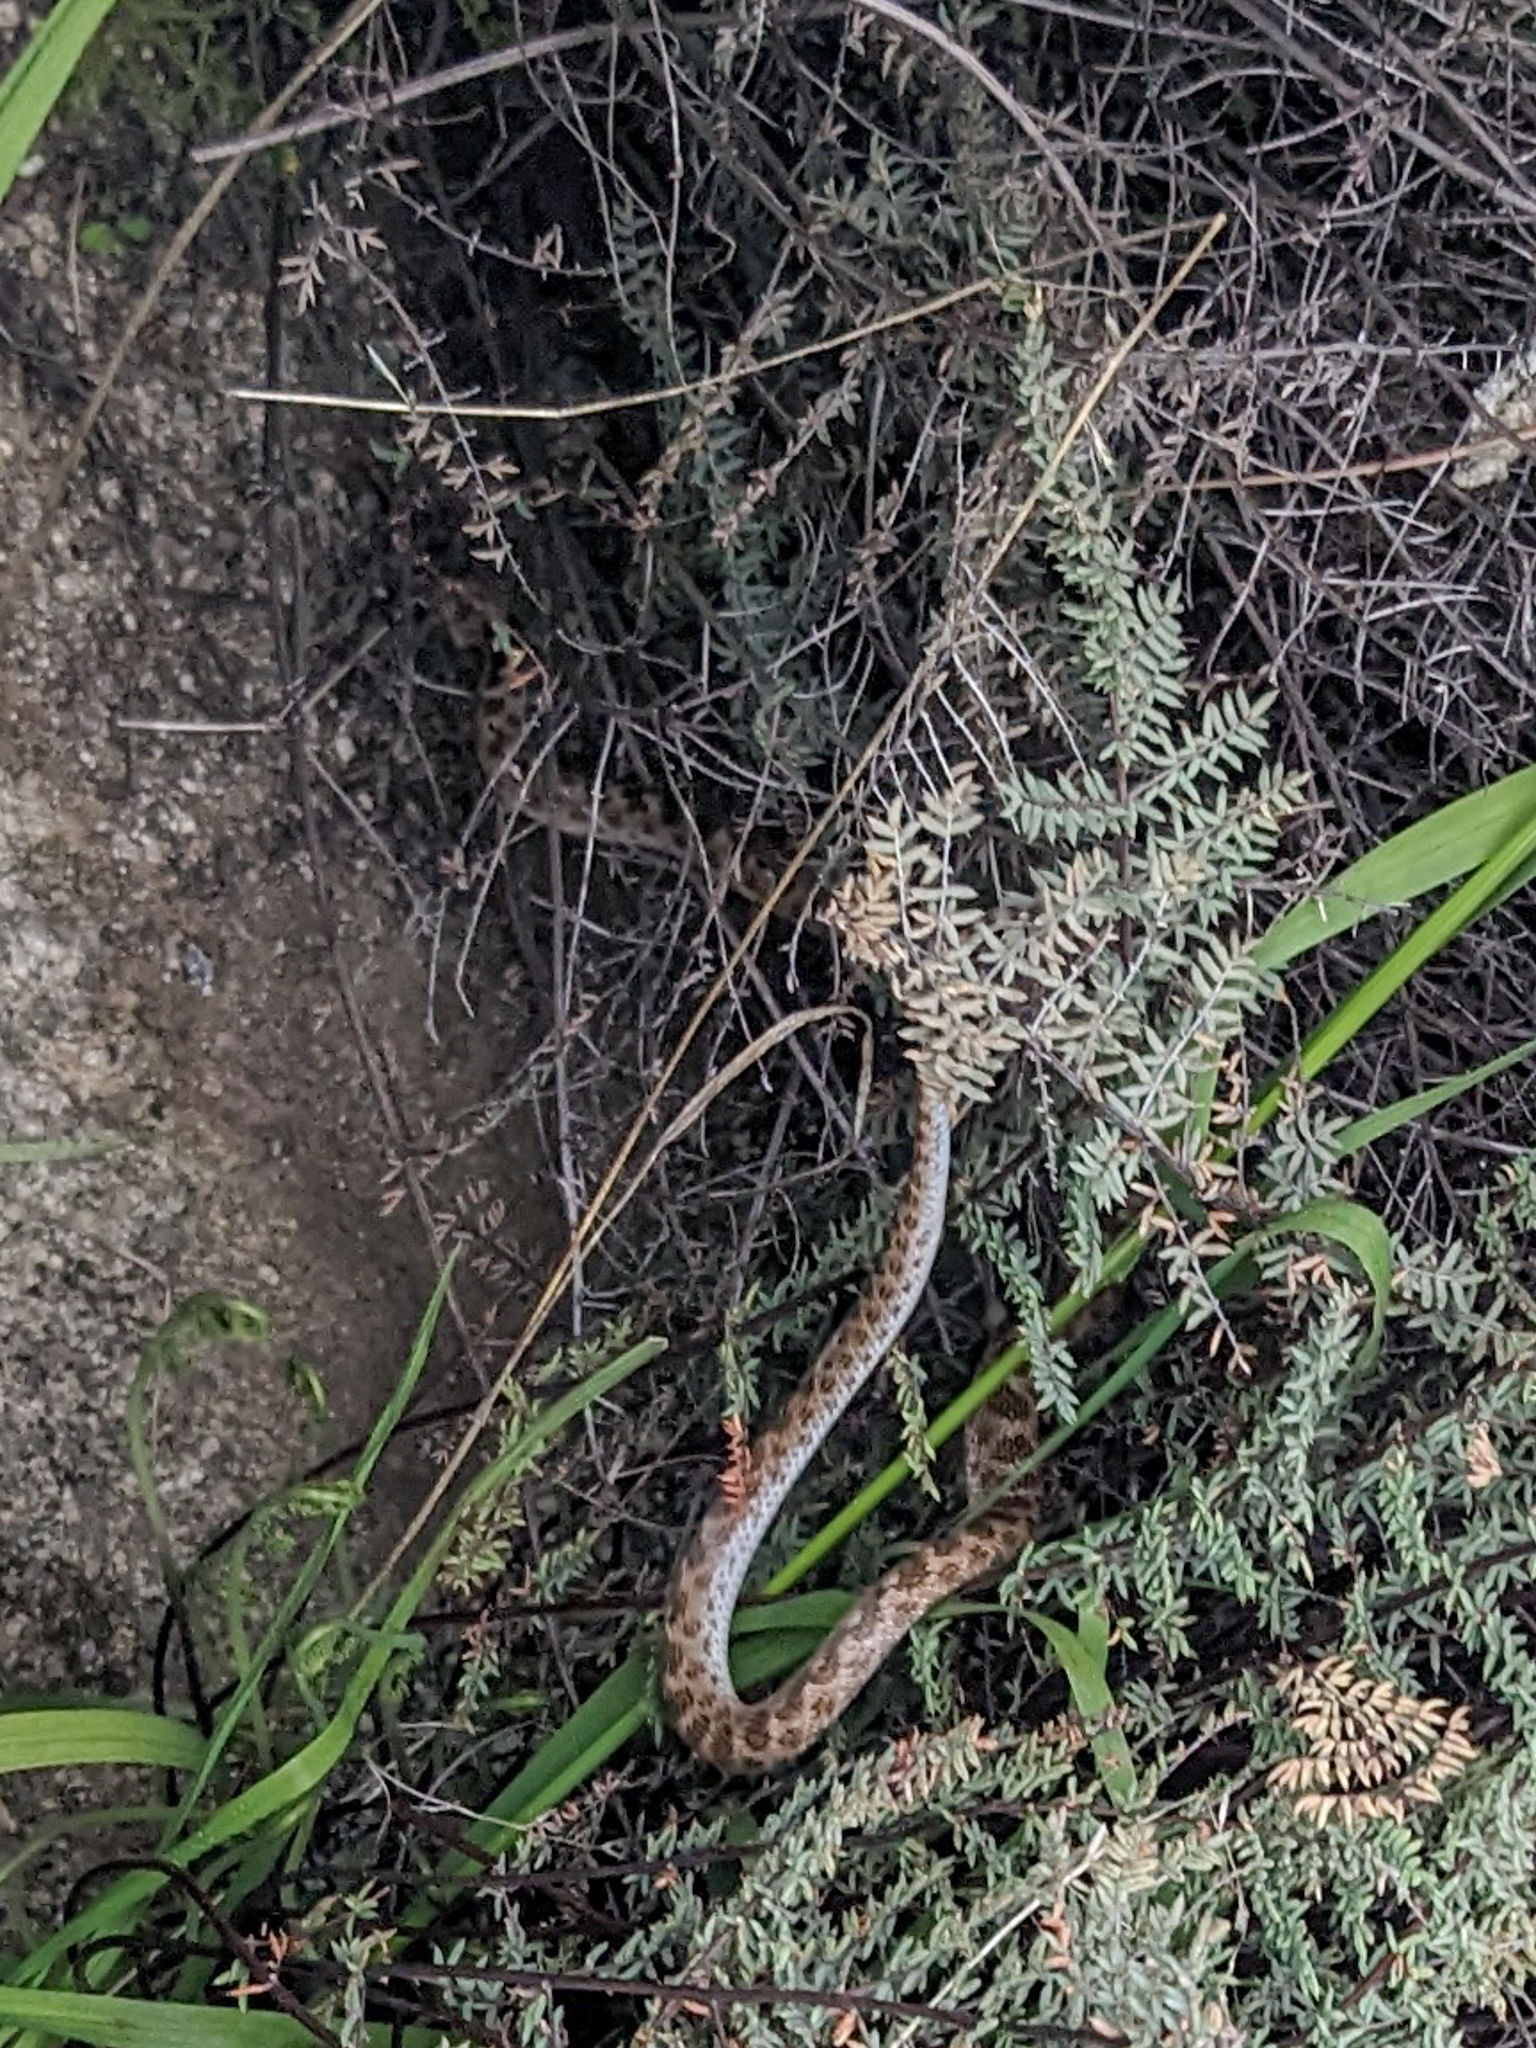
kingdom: Animalia
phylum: Chordata
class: Squamata
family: Colubridae
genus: Hypsiglena
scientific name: Hypsiglena ochrorhynchus
